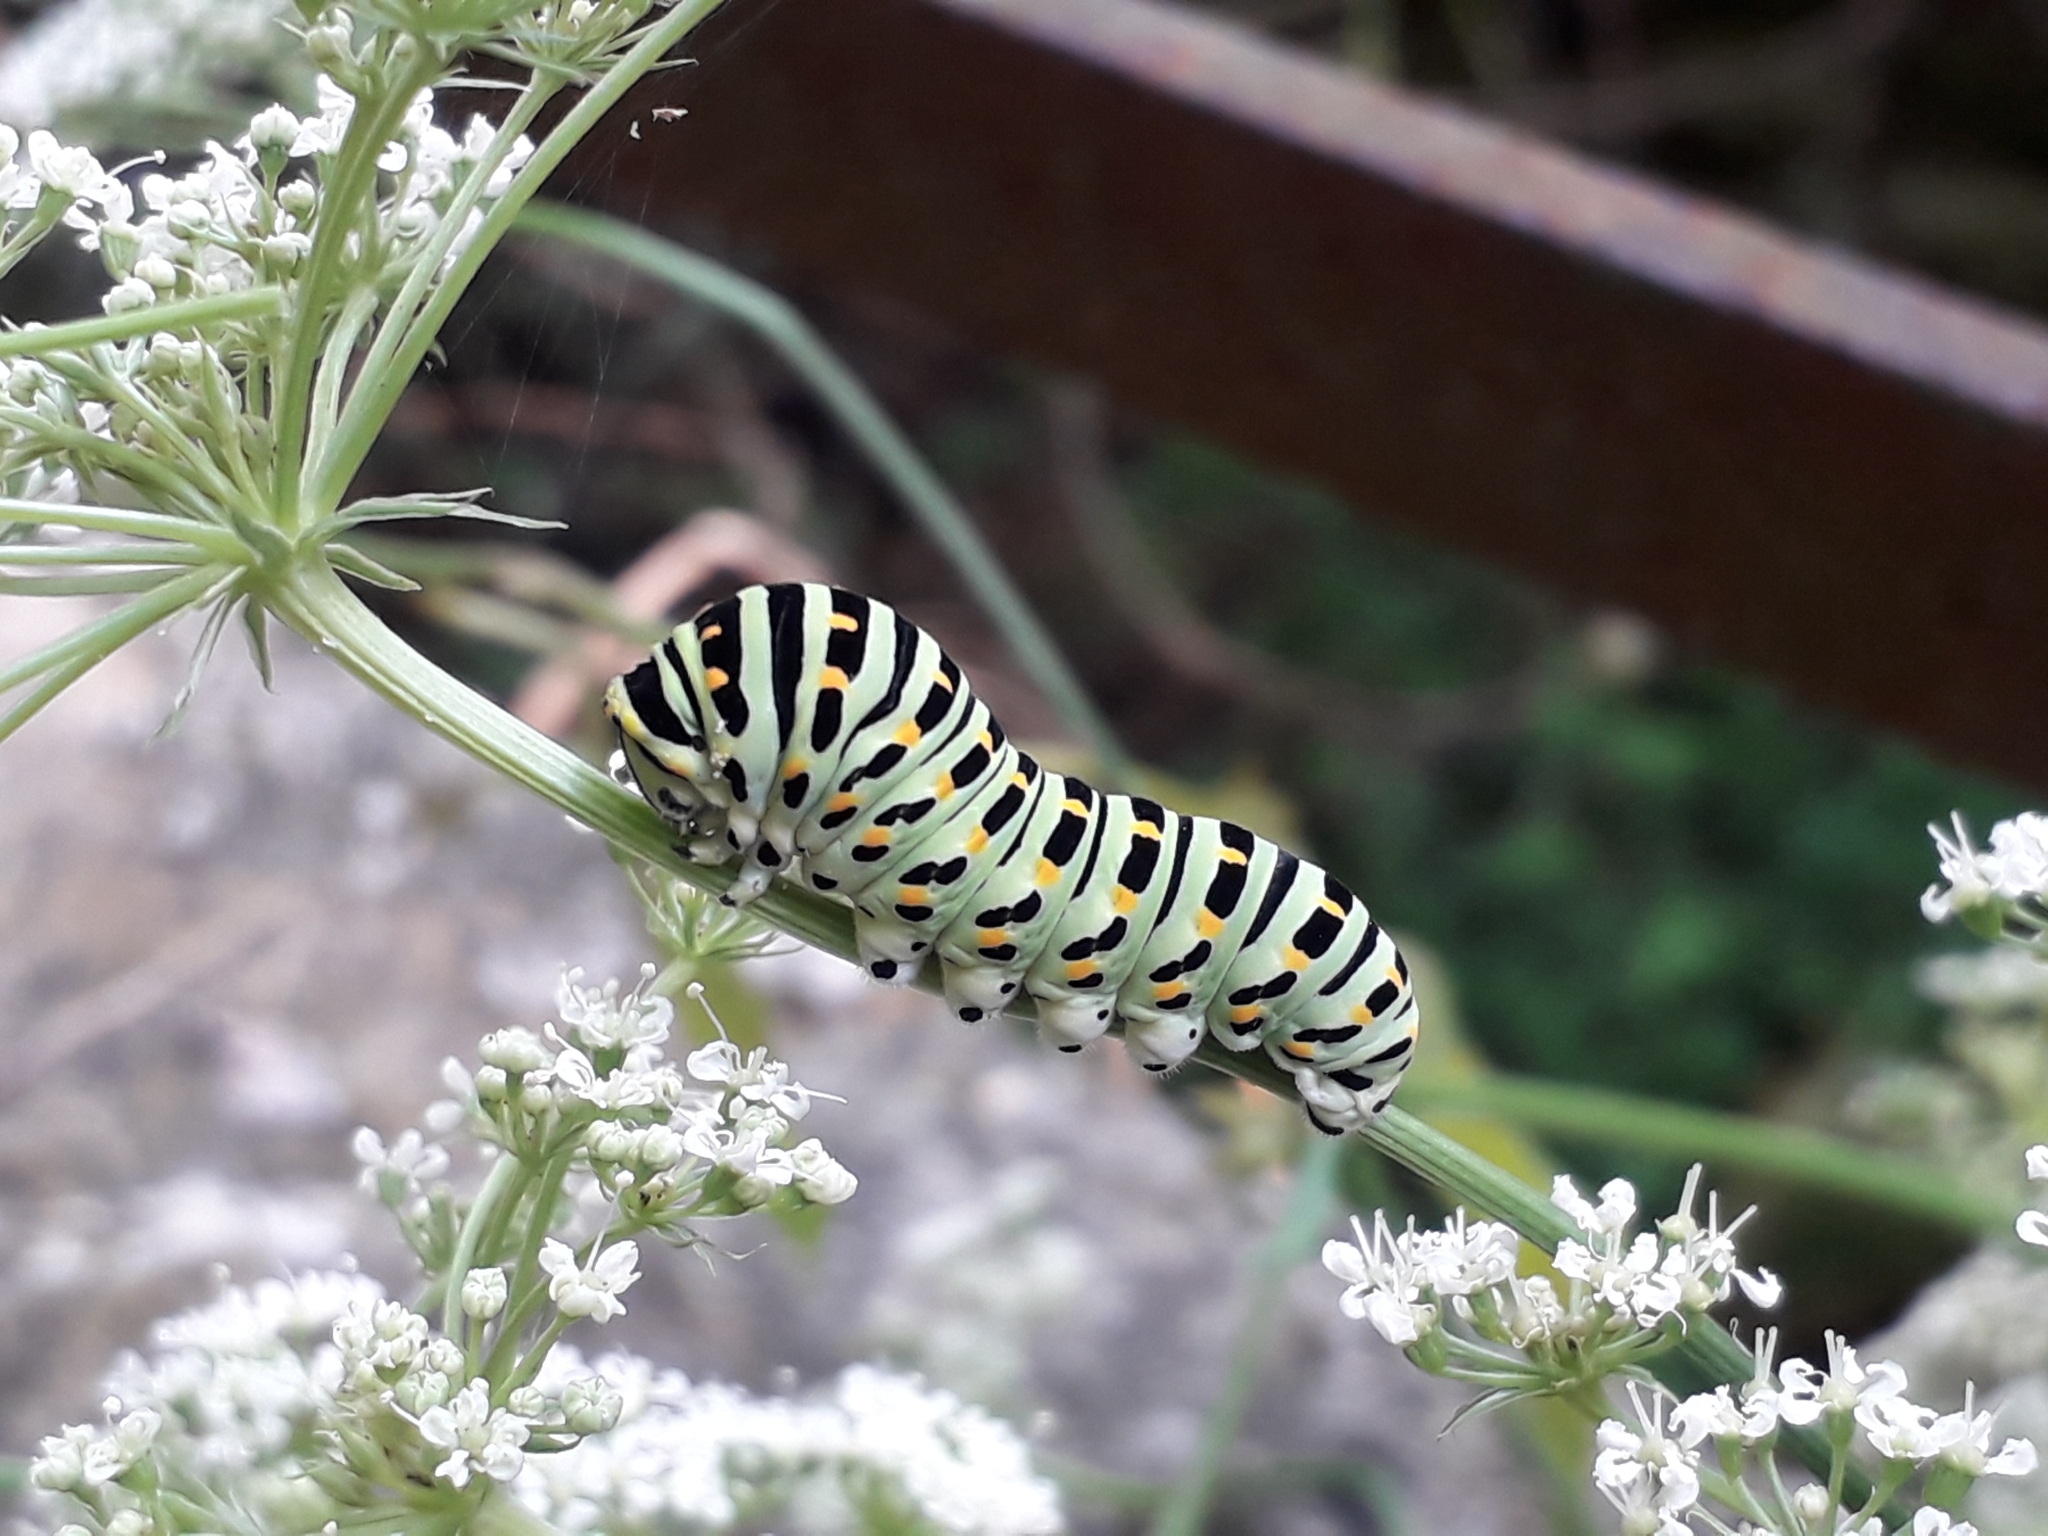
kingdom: Animalia
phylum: Arthropoda
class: Insecta
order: Lepidoptera
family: Papilionidae
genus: Papilio
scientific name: Papilio machaon
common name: Swallowtail
